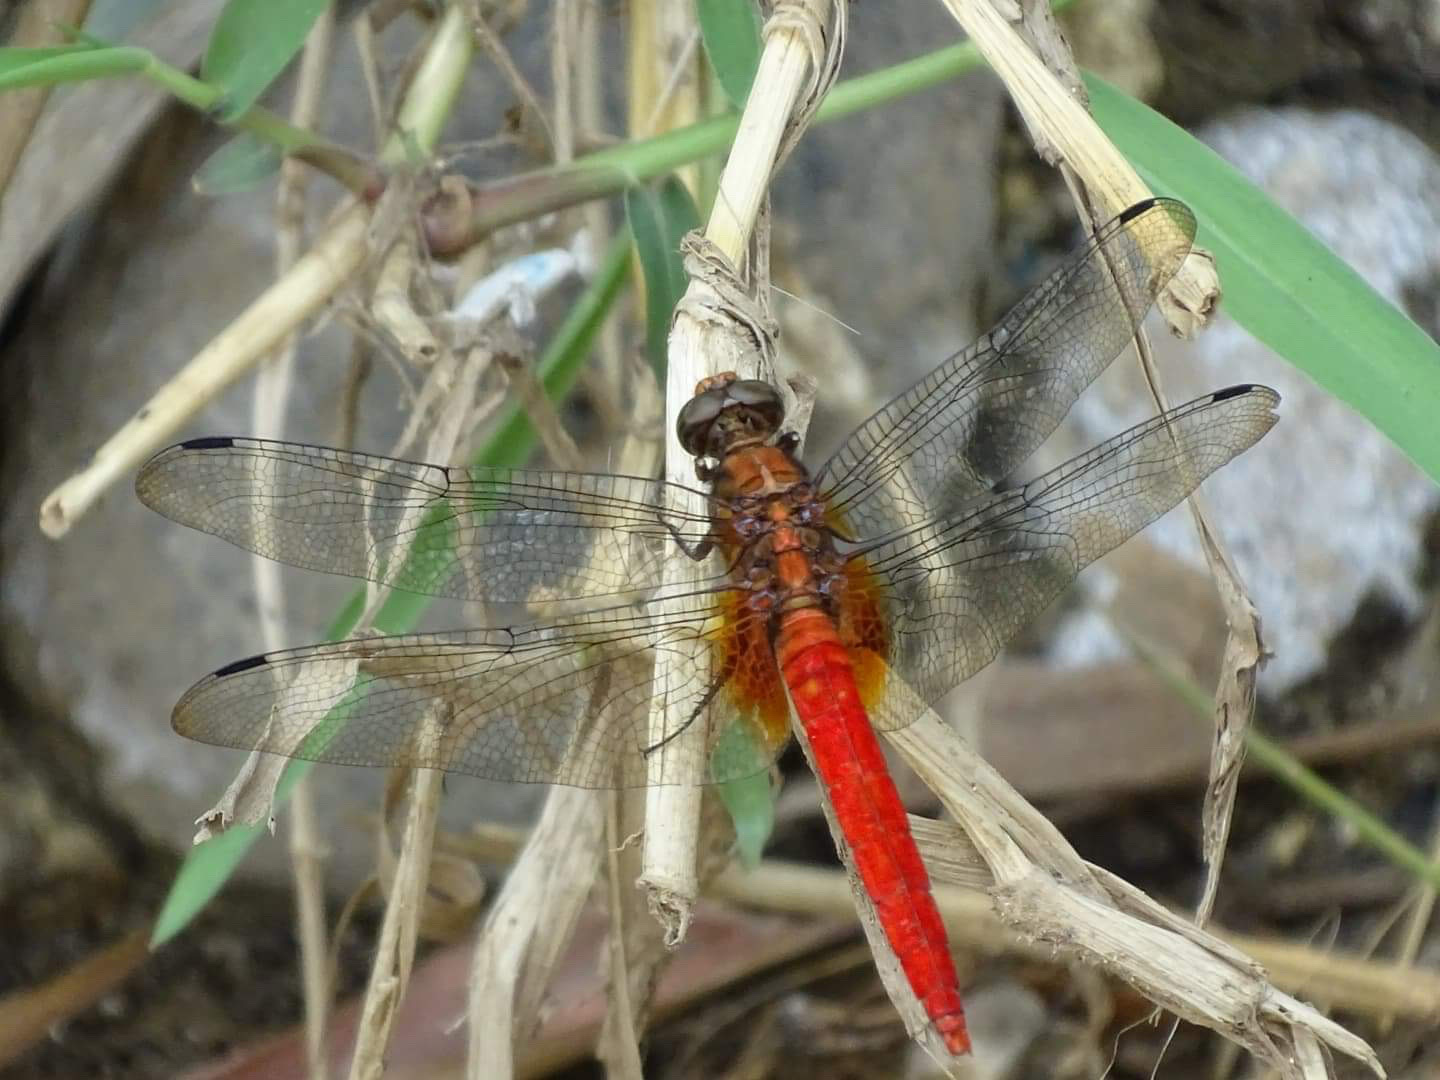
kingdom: Animalia
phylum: Arthropoda
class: Insecta
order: Odonata
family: Libellulidae
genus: Orthetrum
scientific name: Orthetrum testaceum
